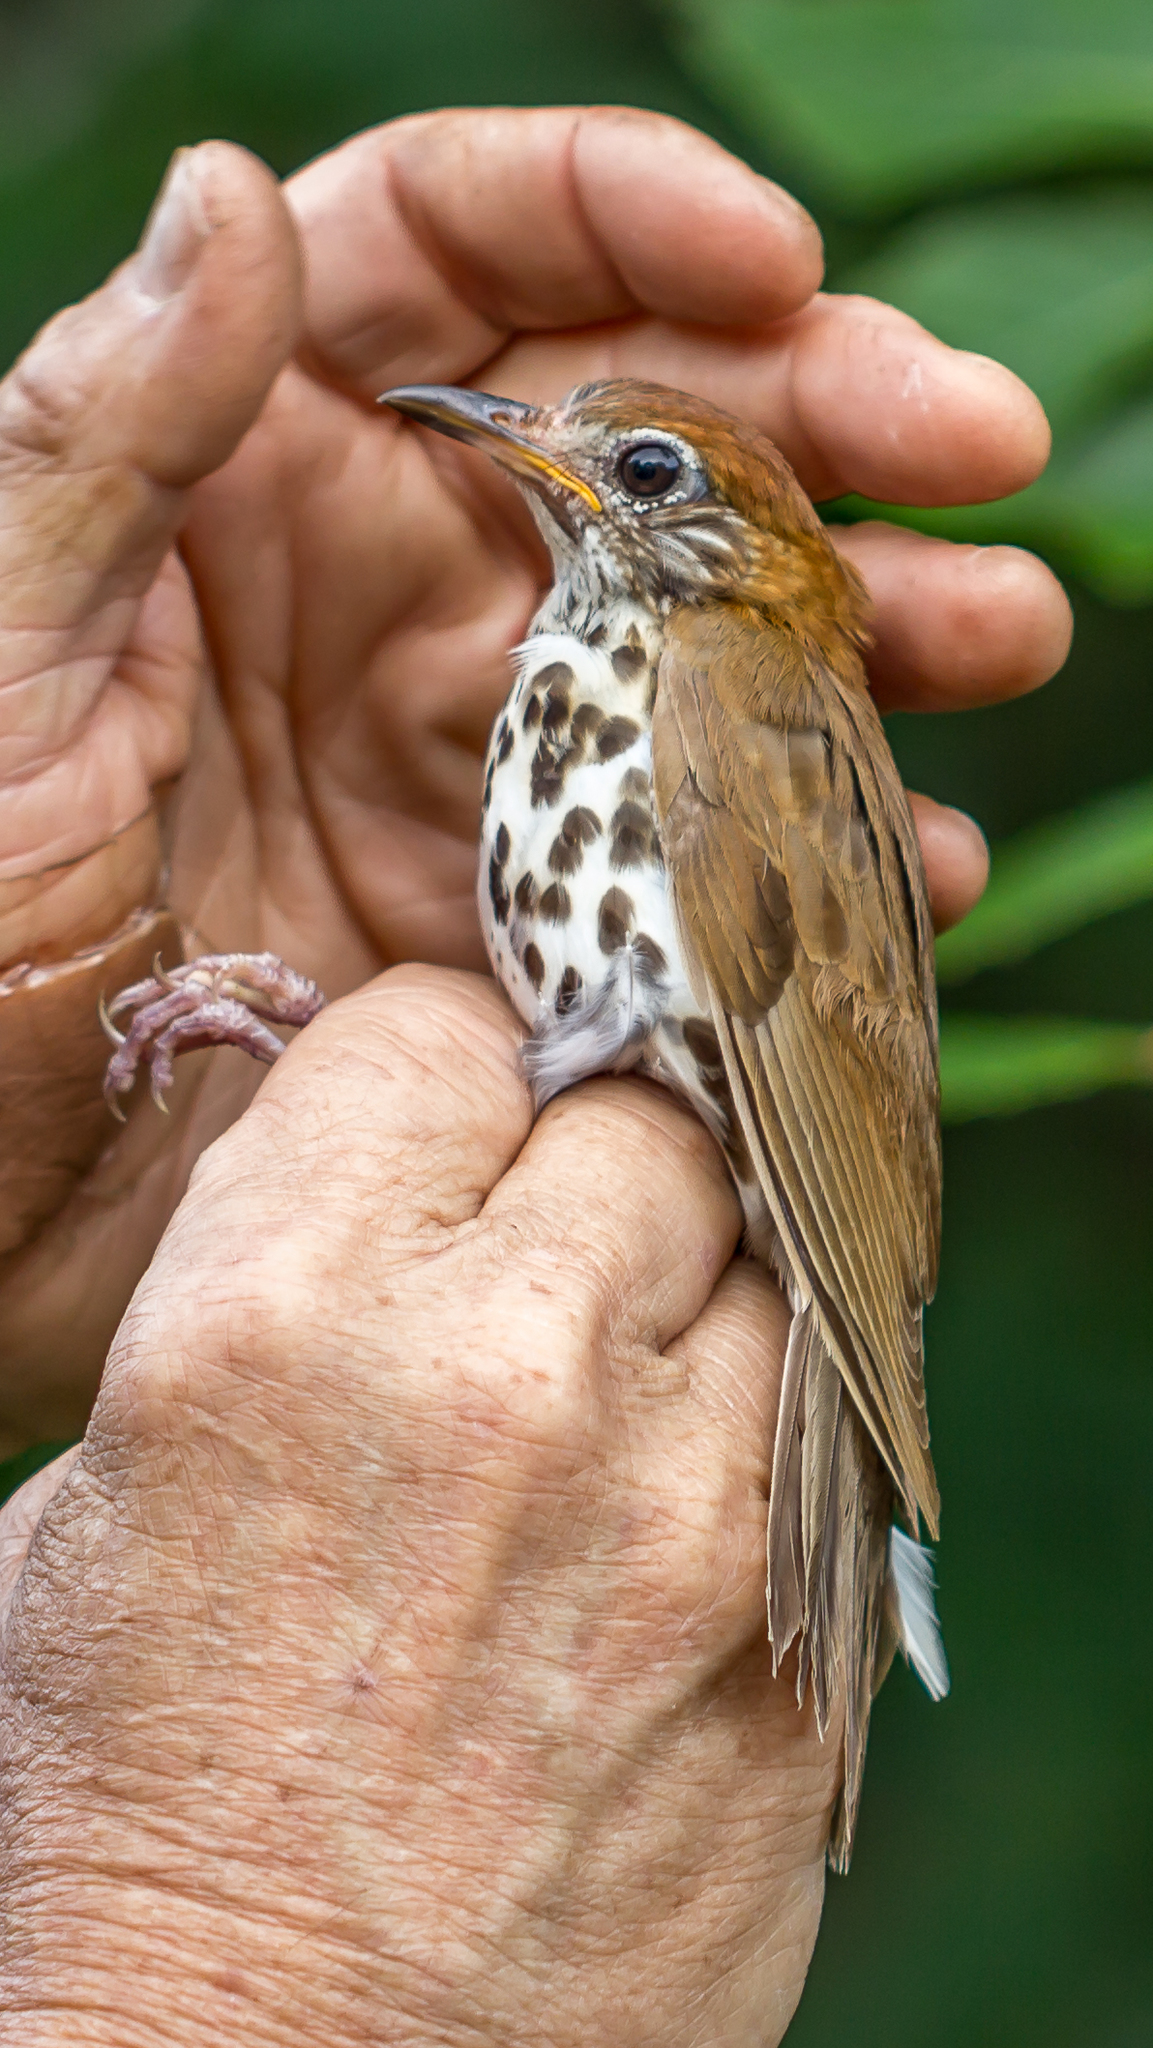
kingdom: Animalia
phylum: Chordata
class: Aves
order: Passeriformes
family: Turdidae
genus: Hylocichla
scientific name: Hylocichla mustelina
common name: Wood thrush
